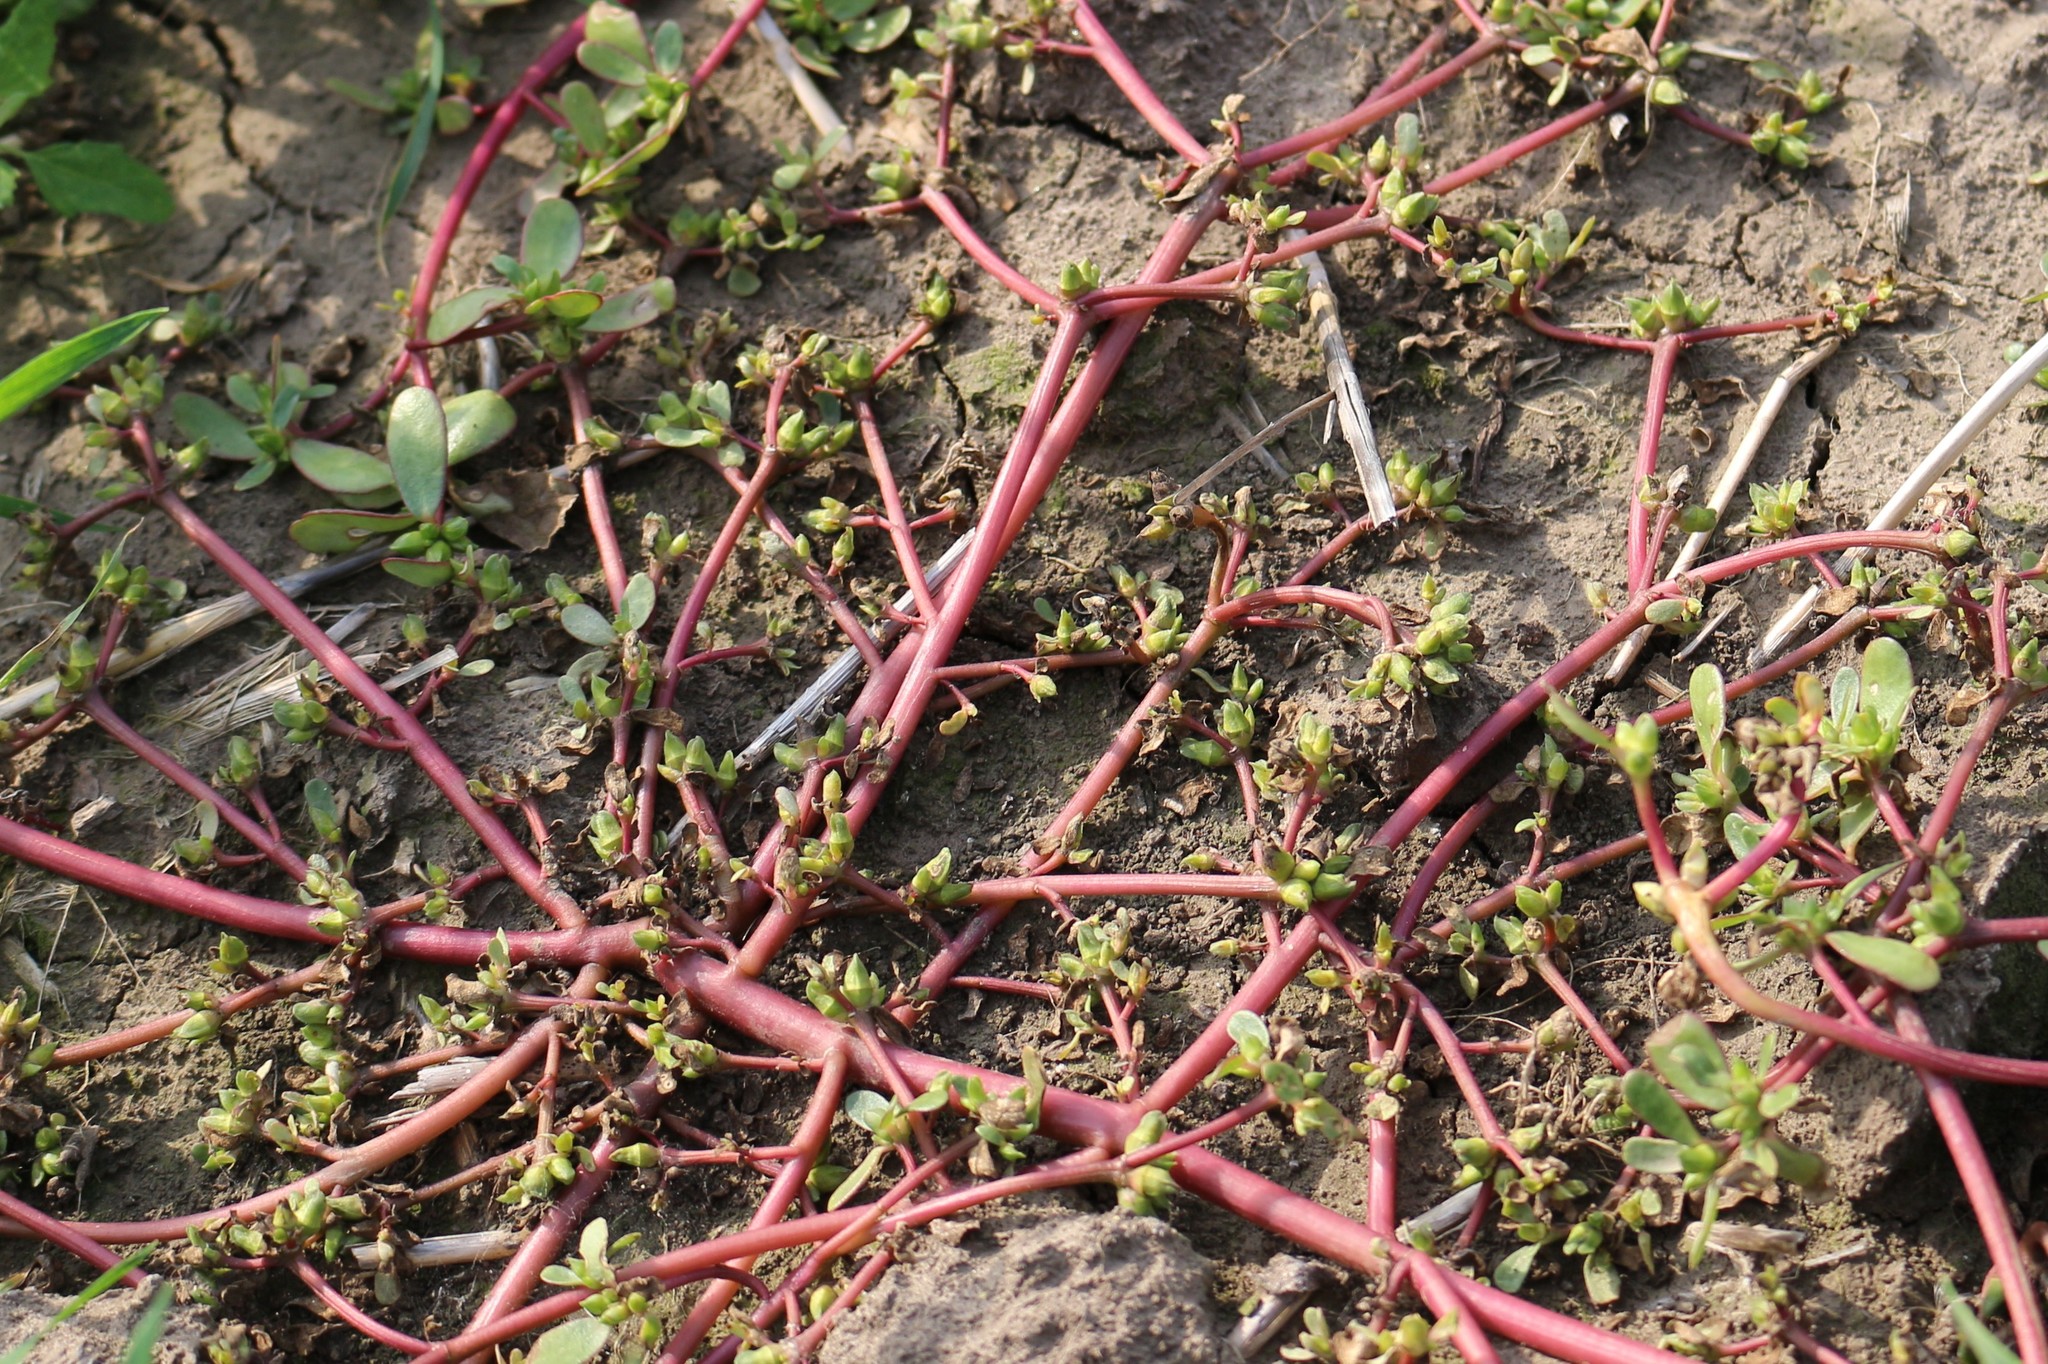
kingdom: Plantae
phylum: Tracheophyta
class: Magnoliopsida
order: Caryophyllales
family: Portulacaceae
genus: Portulaca
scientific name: Portulaca oleracea
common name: Common purslane
